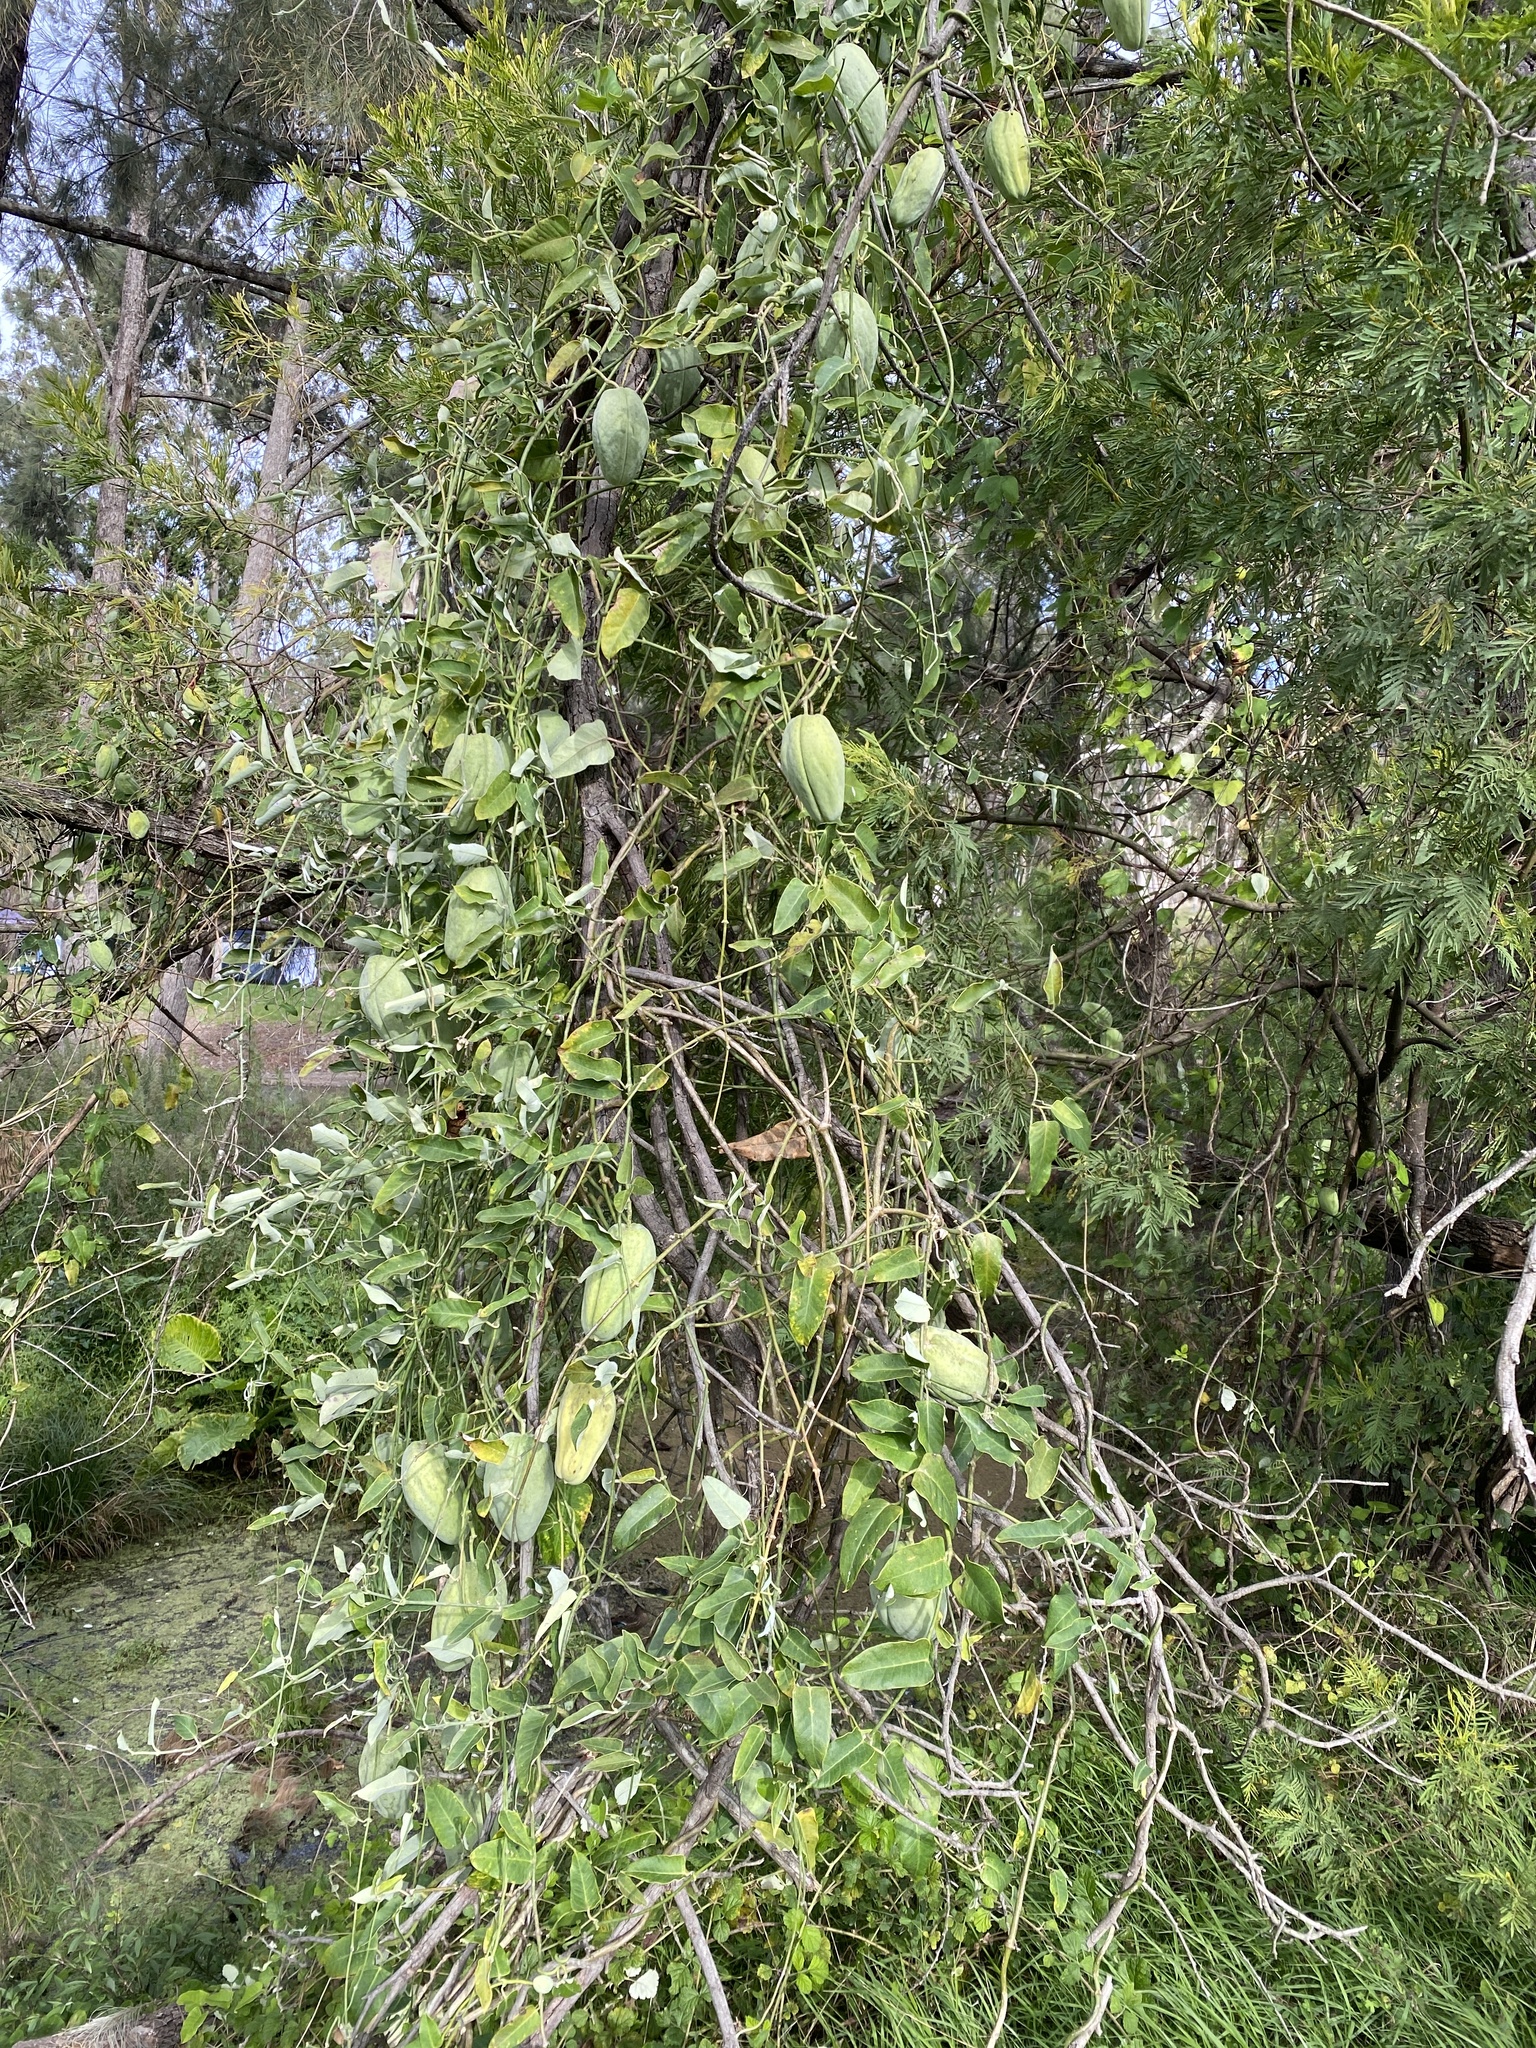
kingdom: Plantae
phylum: Tracheophyta
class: Magnoliopsida
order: Gentianales
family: Apocynaceae
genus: Araujia
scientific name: Araujia sericifera
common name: White bladderflower
